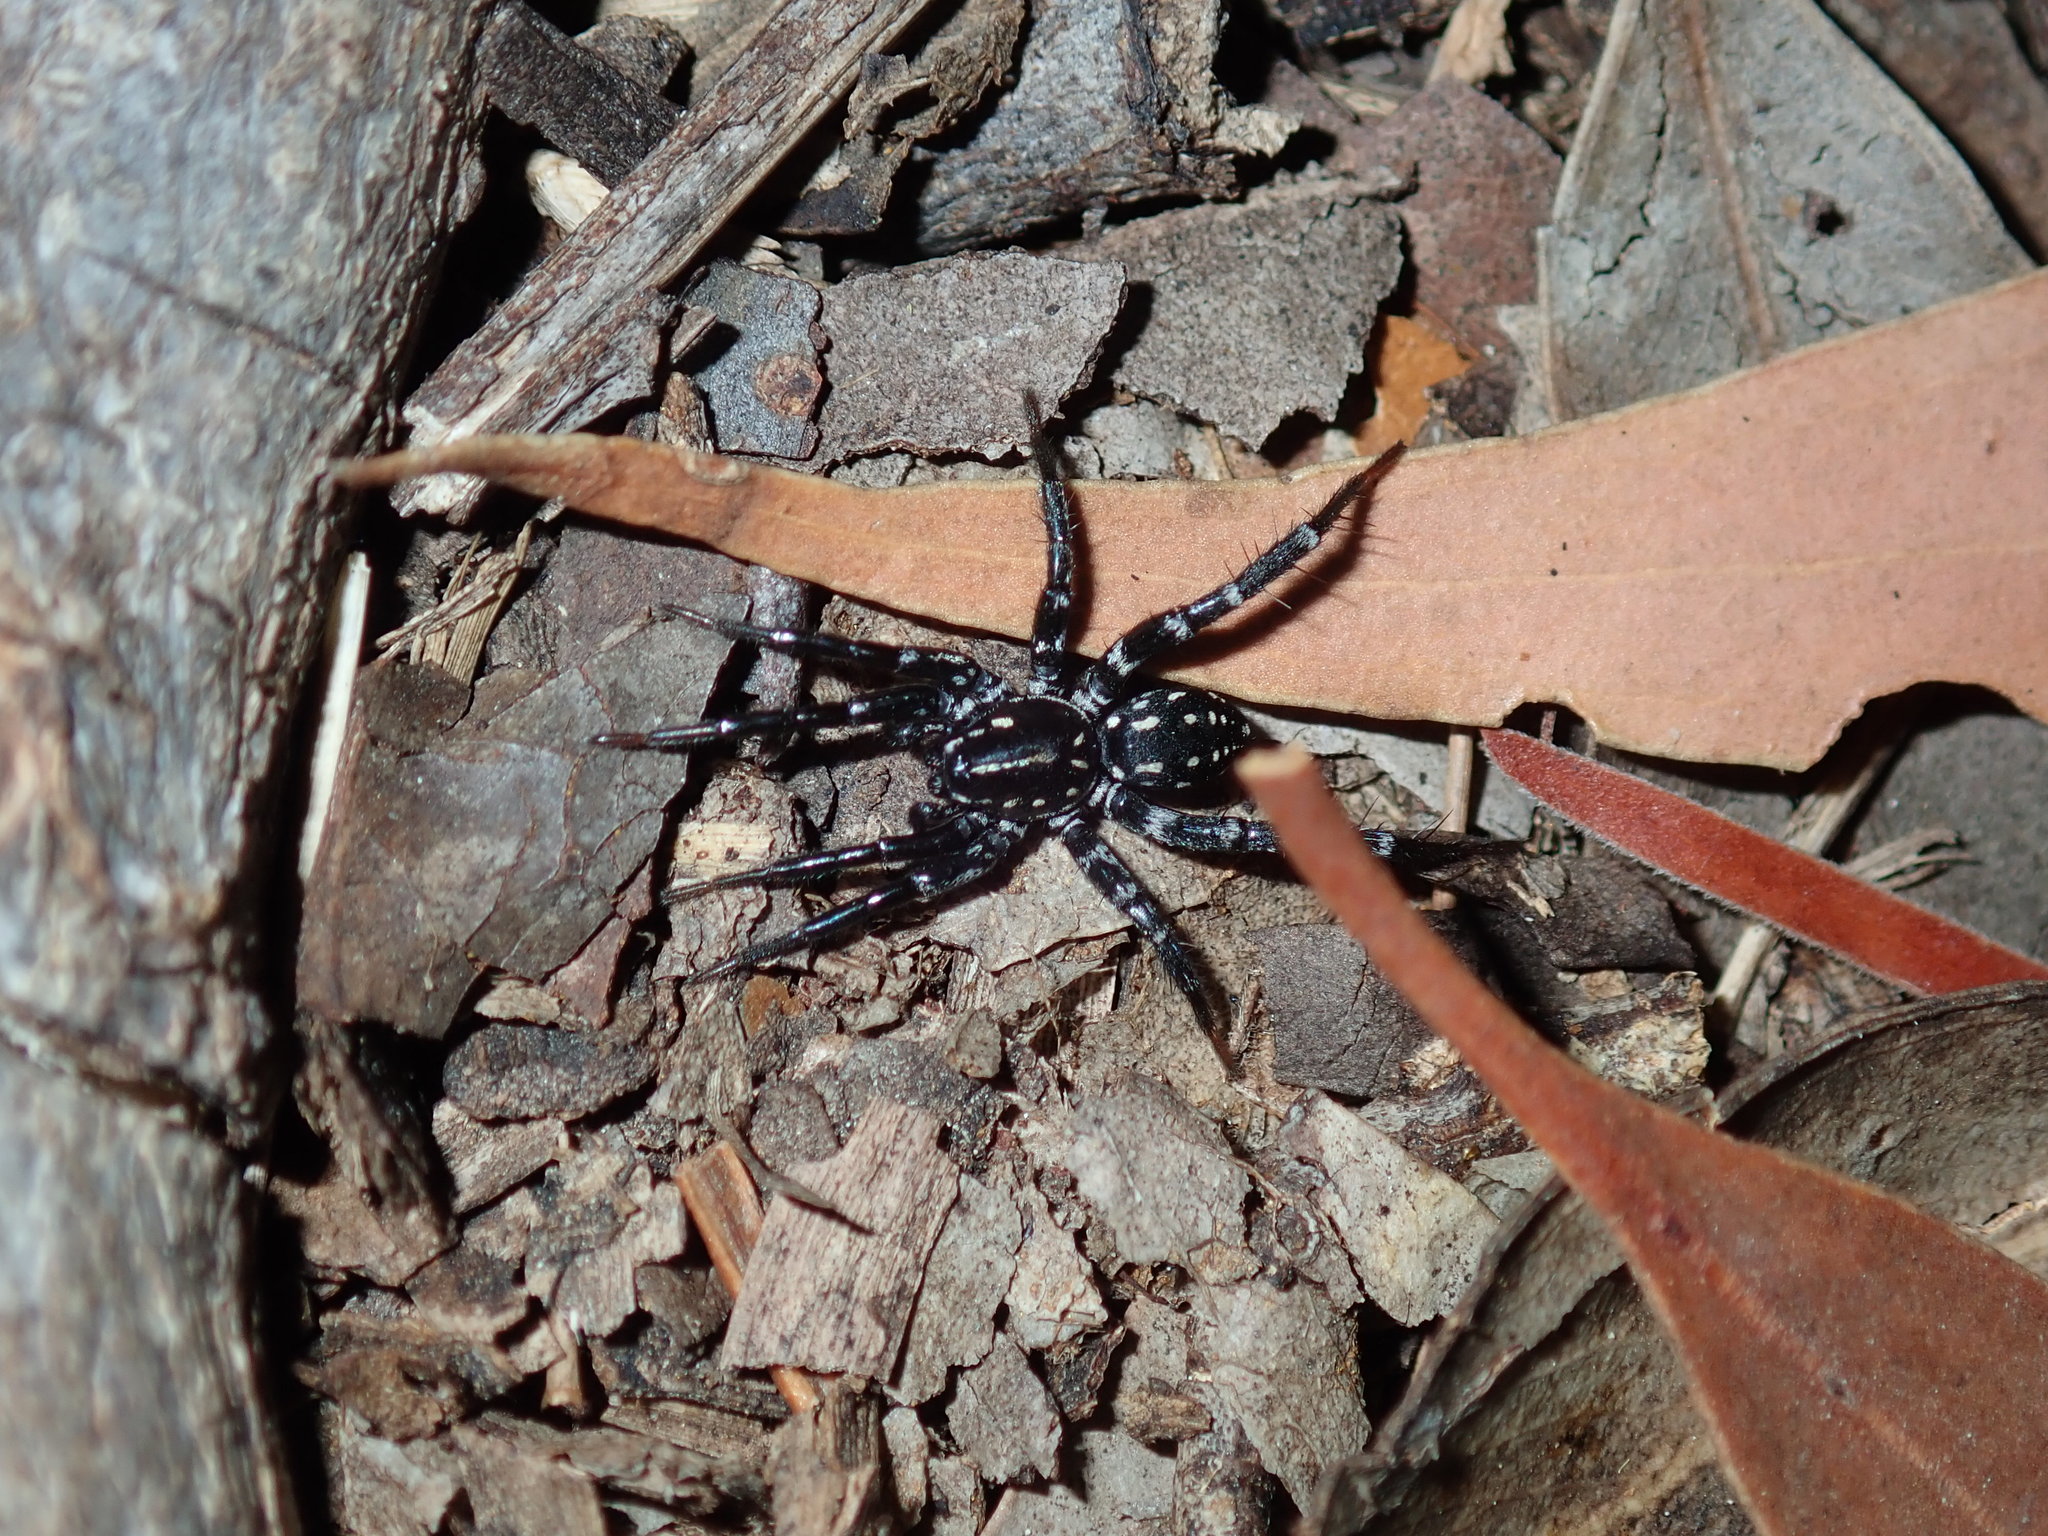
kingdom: Animalia
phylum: Arthropoda
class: Arachnida
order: Araneae
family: Corinnidae
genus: Nyssus
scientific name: Nyssus albopunctatus
